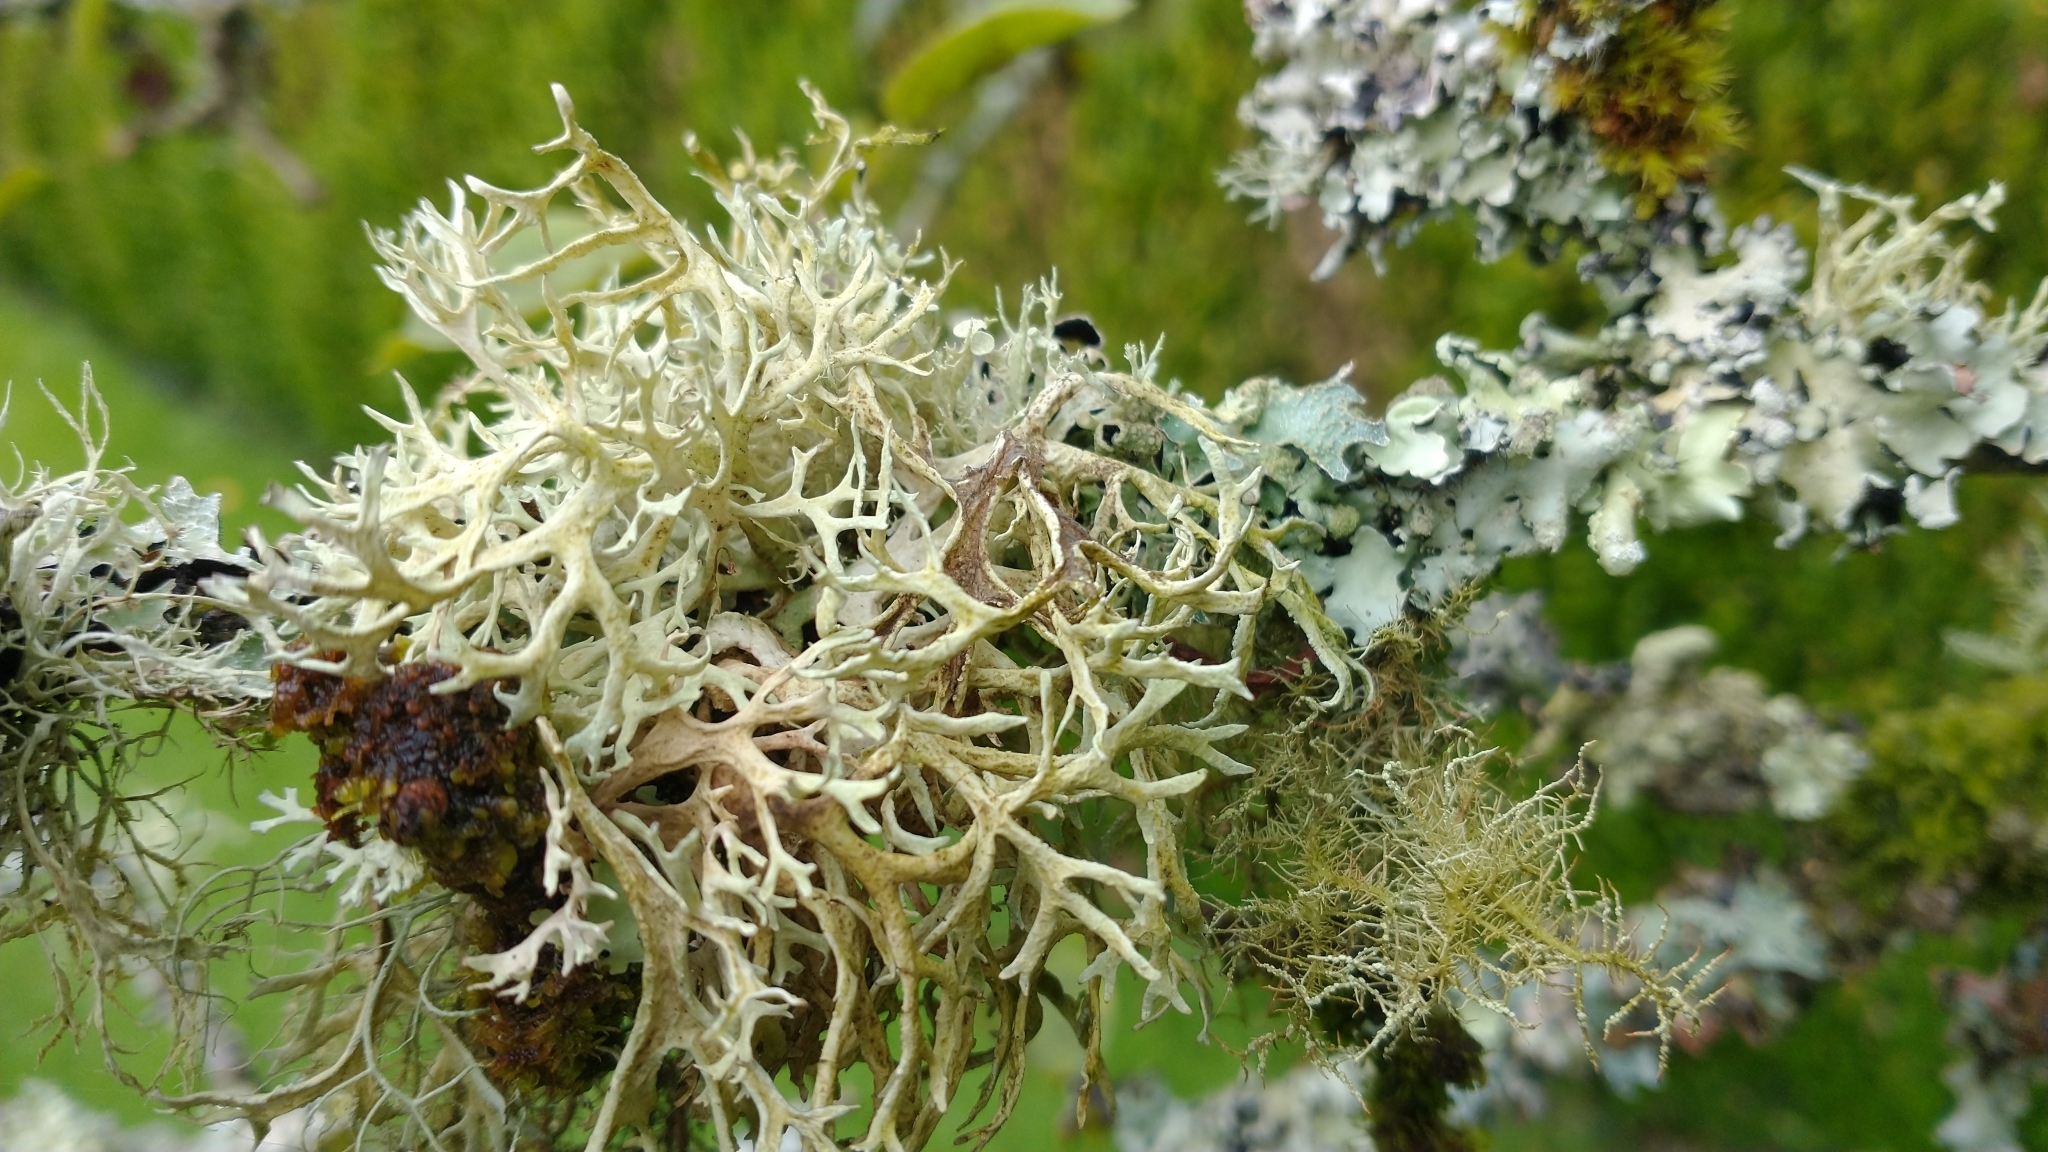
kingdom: Fungi
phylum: Ascomycota
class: Lecanoromycetes
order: Lecanorales
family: Parmeliaceae
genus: Evernia
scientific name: Evernia prunastri
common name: Oak moss
